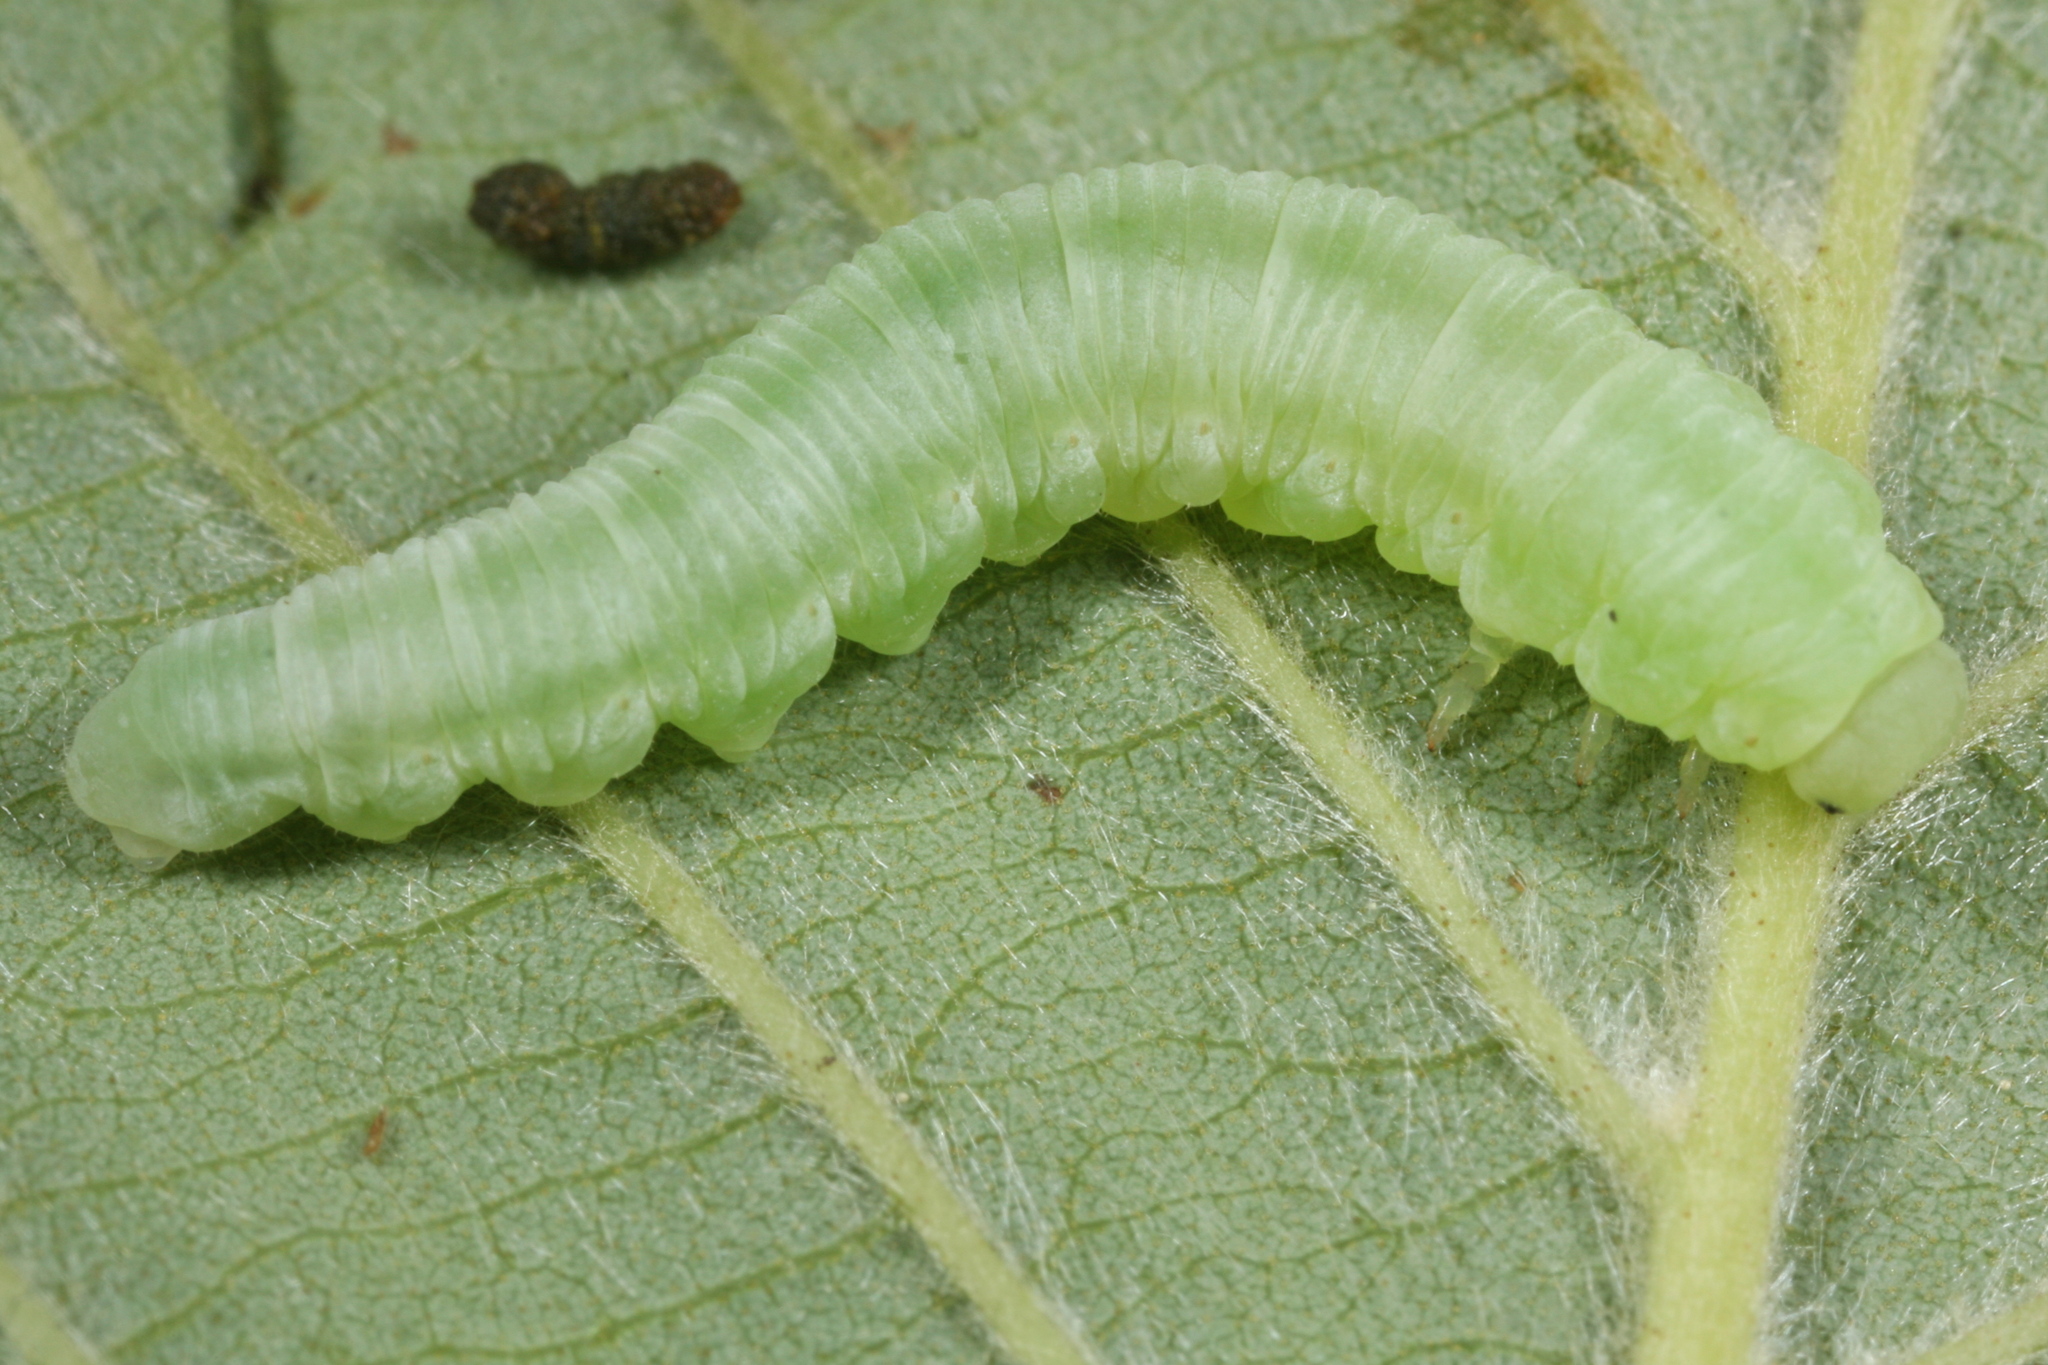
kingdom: Animalia
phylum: Arthropoda
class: Insecta
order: Hymenoptera
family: Tenthredinidae
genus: Monsoma
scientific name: Monsoma pulveratum
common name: Green alder sawfly
